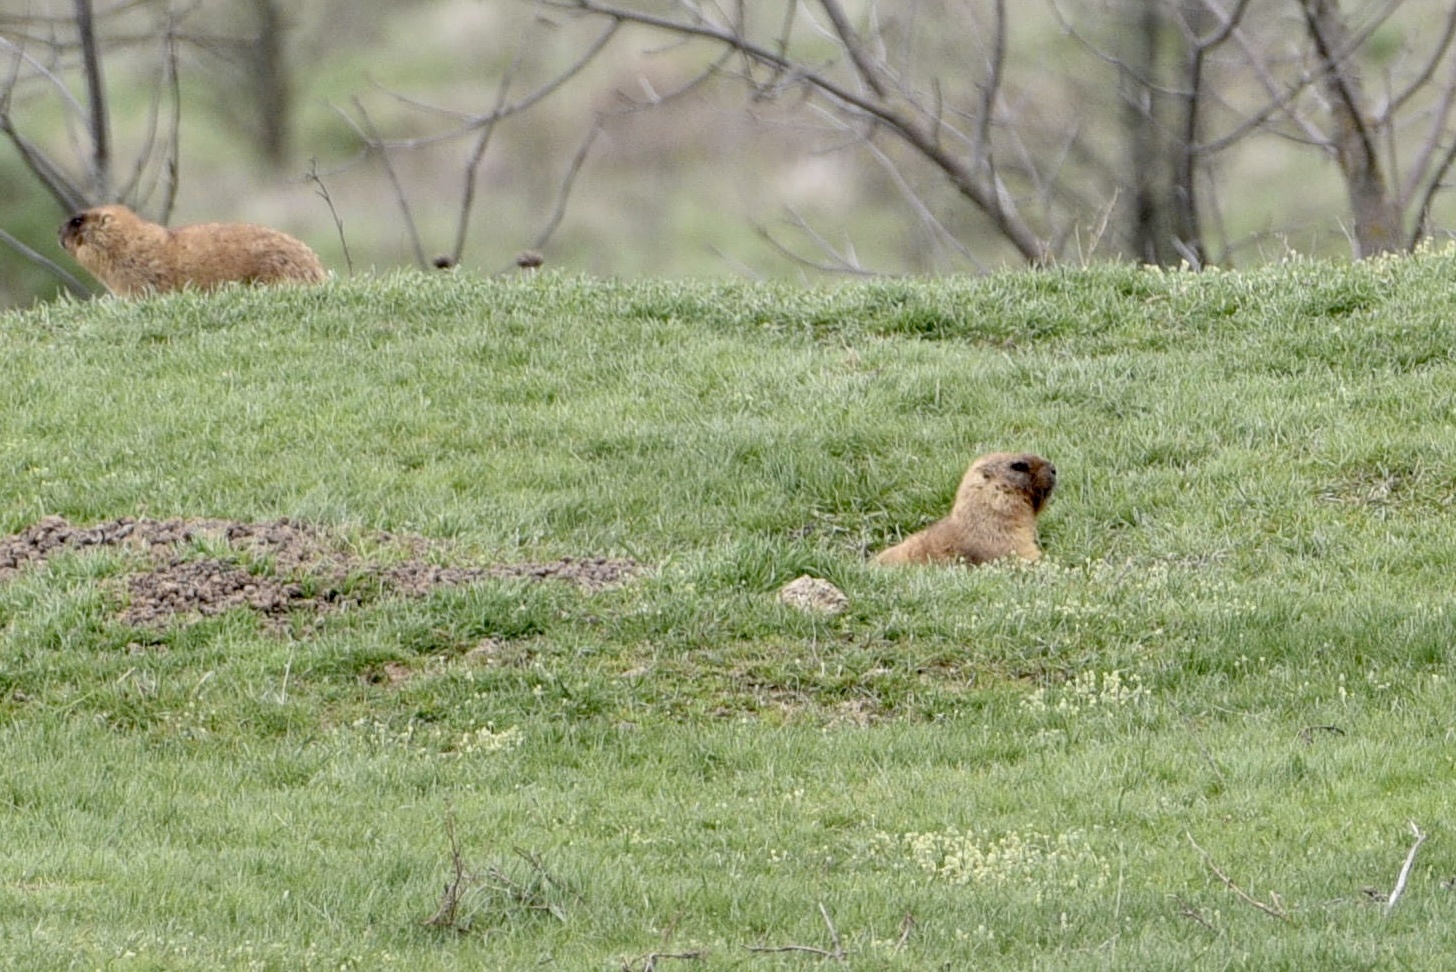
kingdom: Animalia
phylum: Chordata
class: Mammalia
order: Rodentia
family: Sciuridae
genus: Marmota
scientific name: Marmota bobak
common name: Bobak marmot
